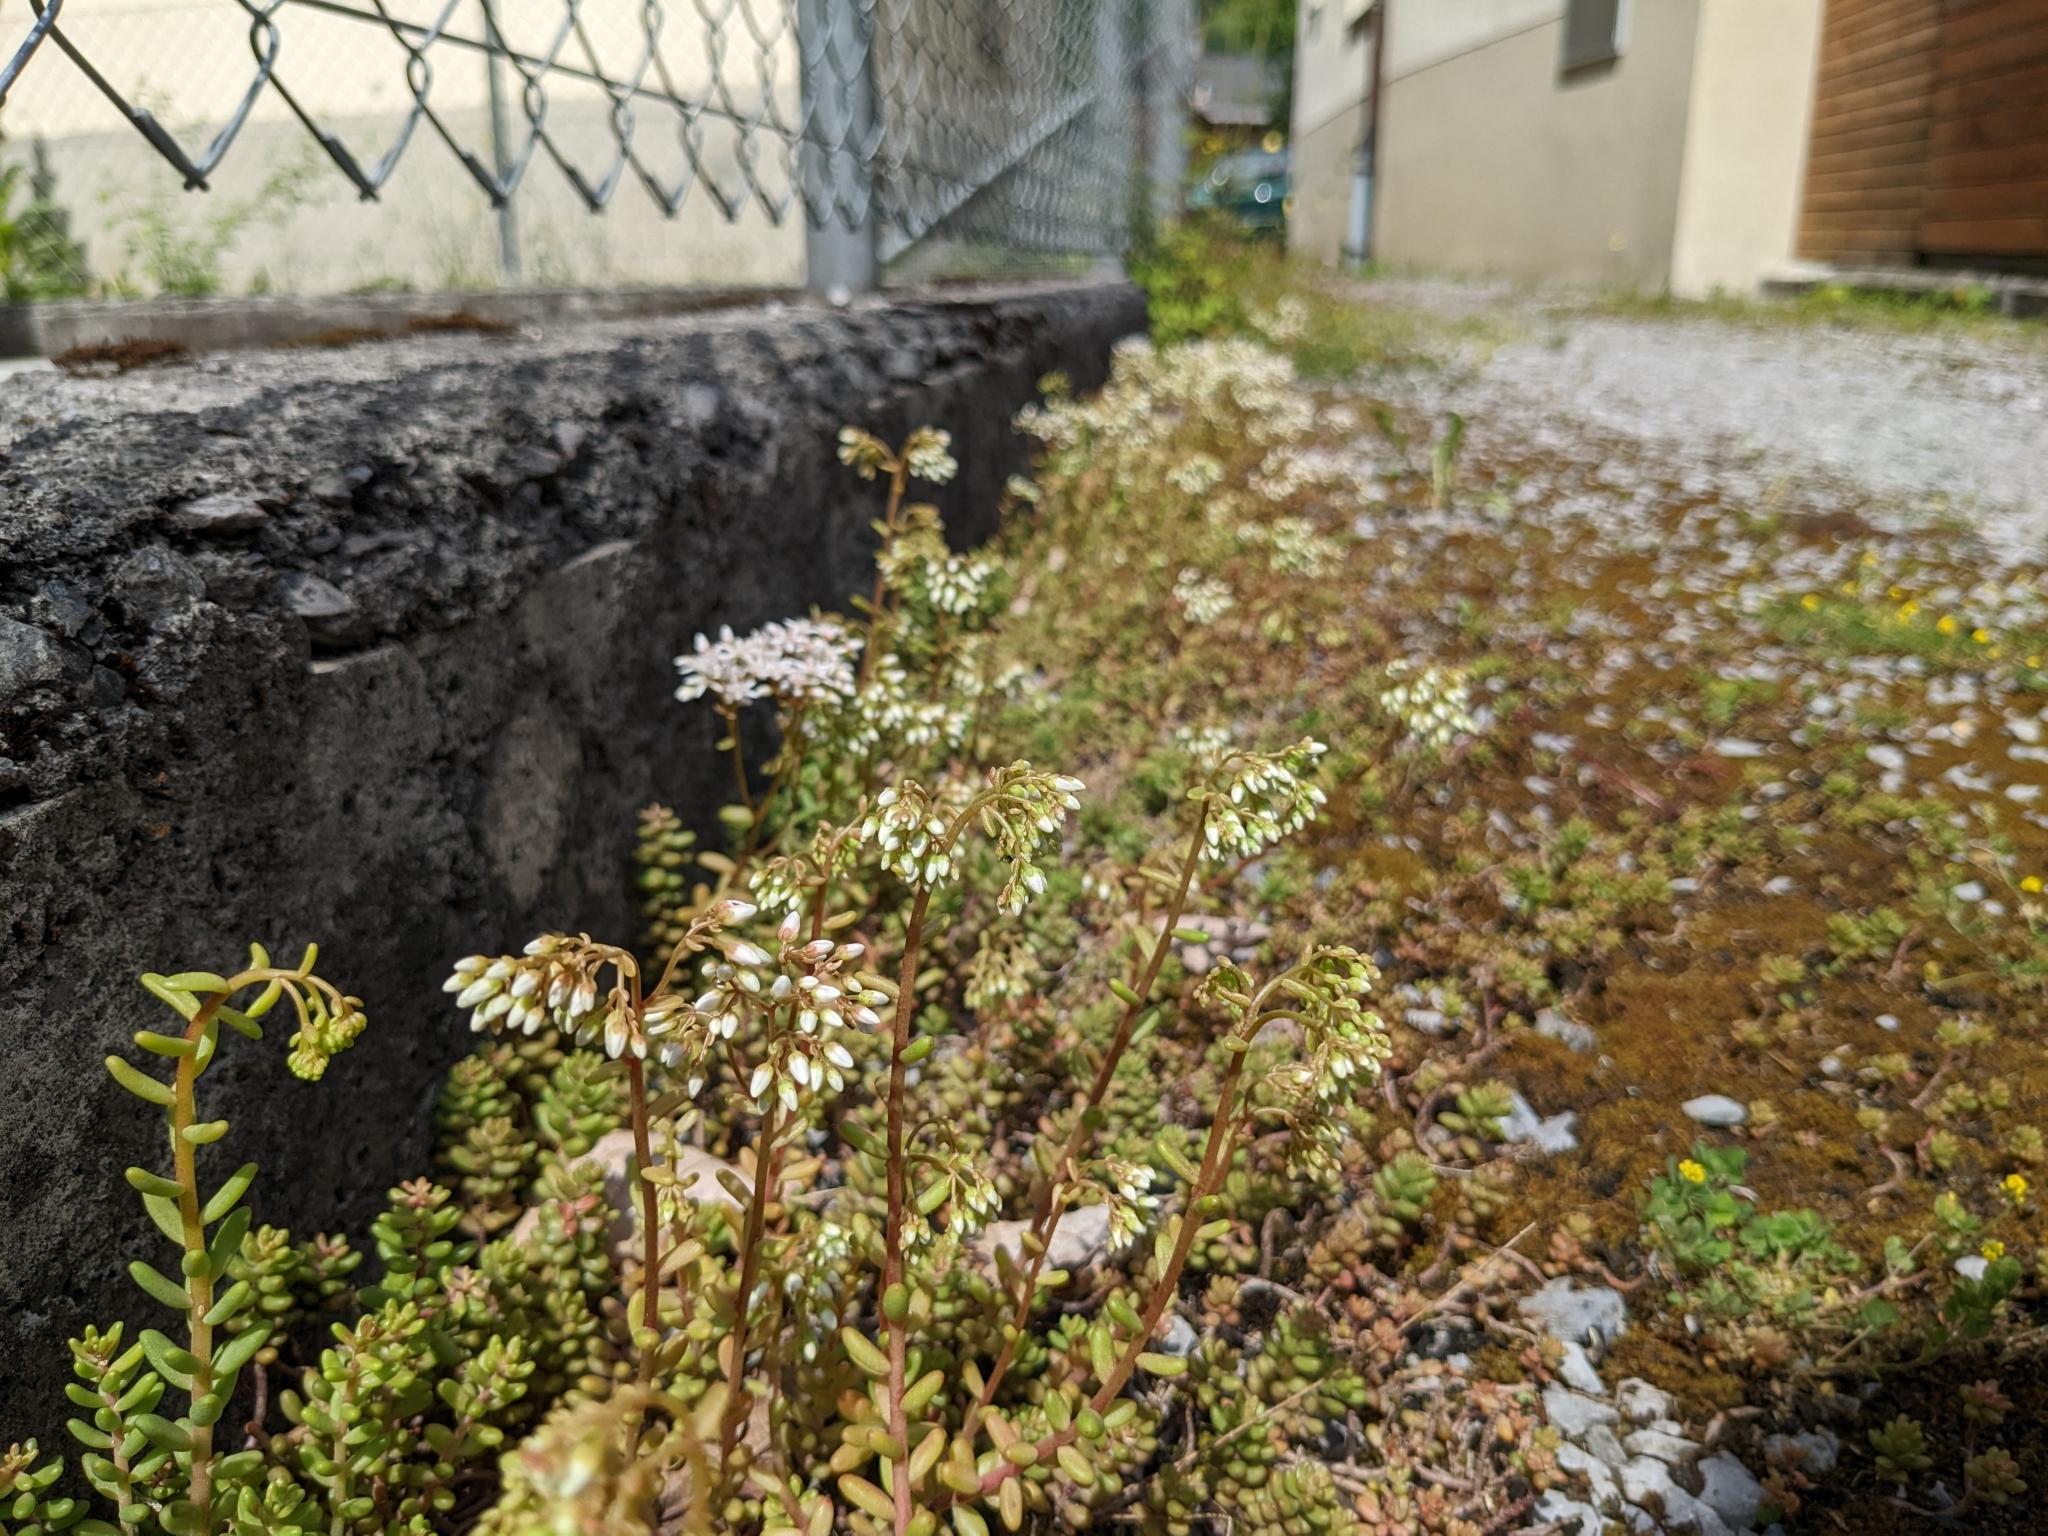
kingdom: Plantae
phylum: Tracheophyta
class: Magnoliopsida
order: Saxifragales
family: Crassulaceae
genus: Sedum
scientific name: Sedum album
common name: White stonecrop
